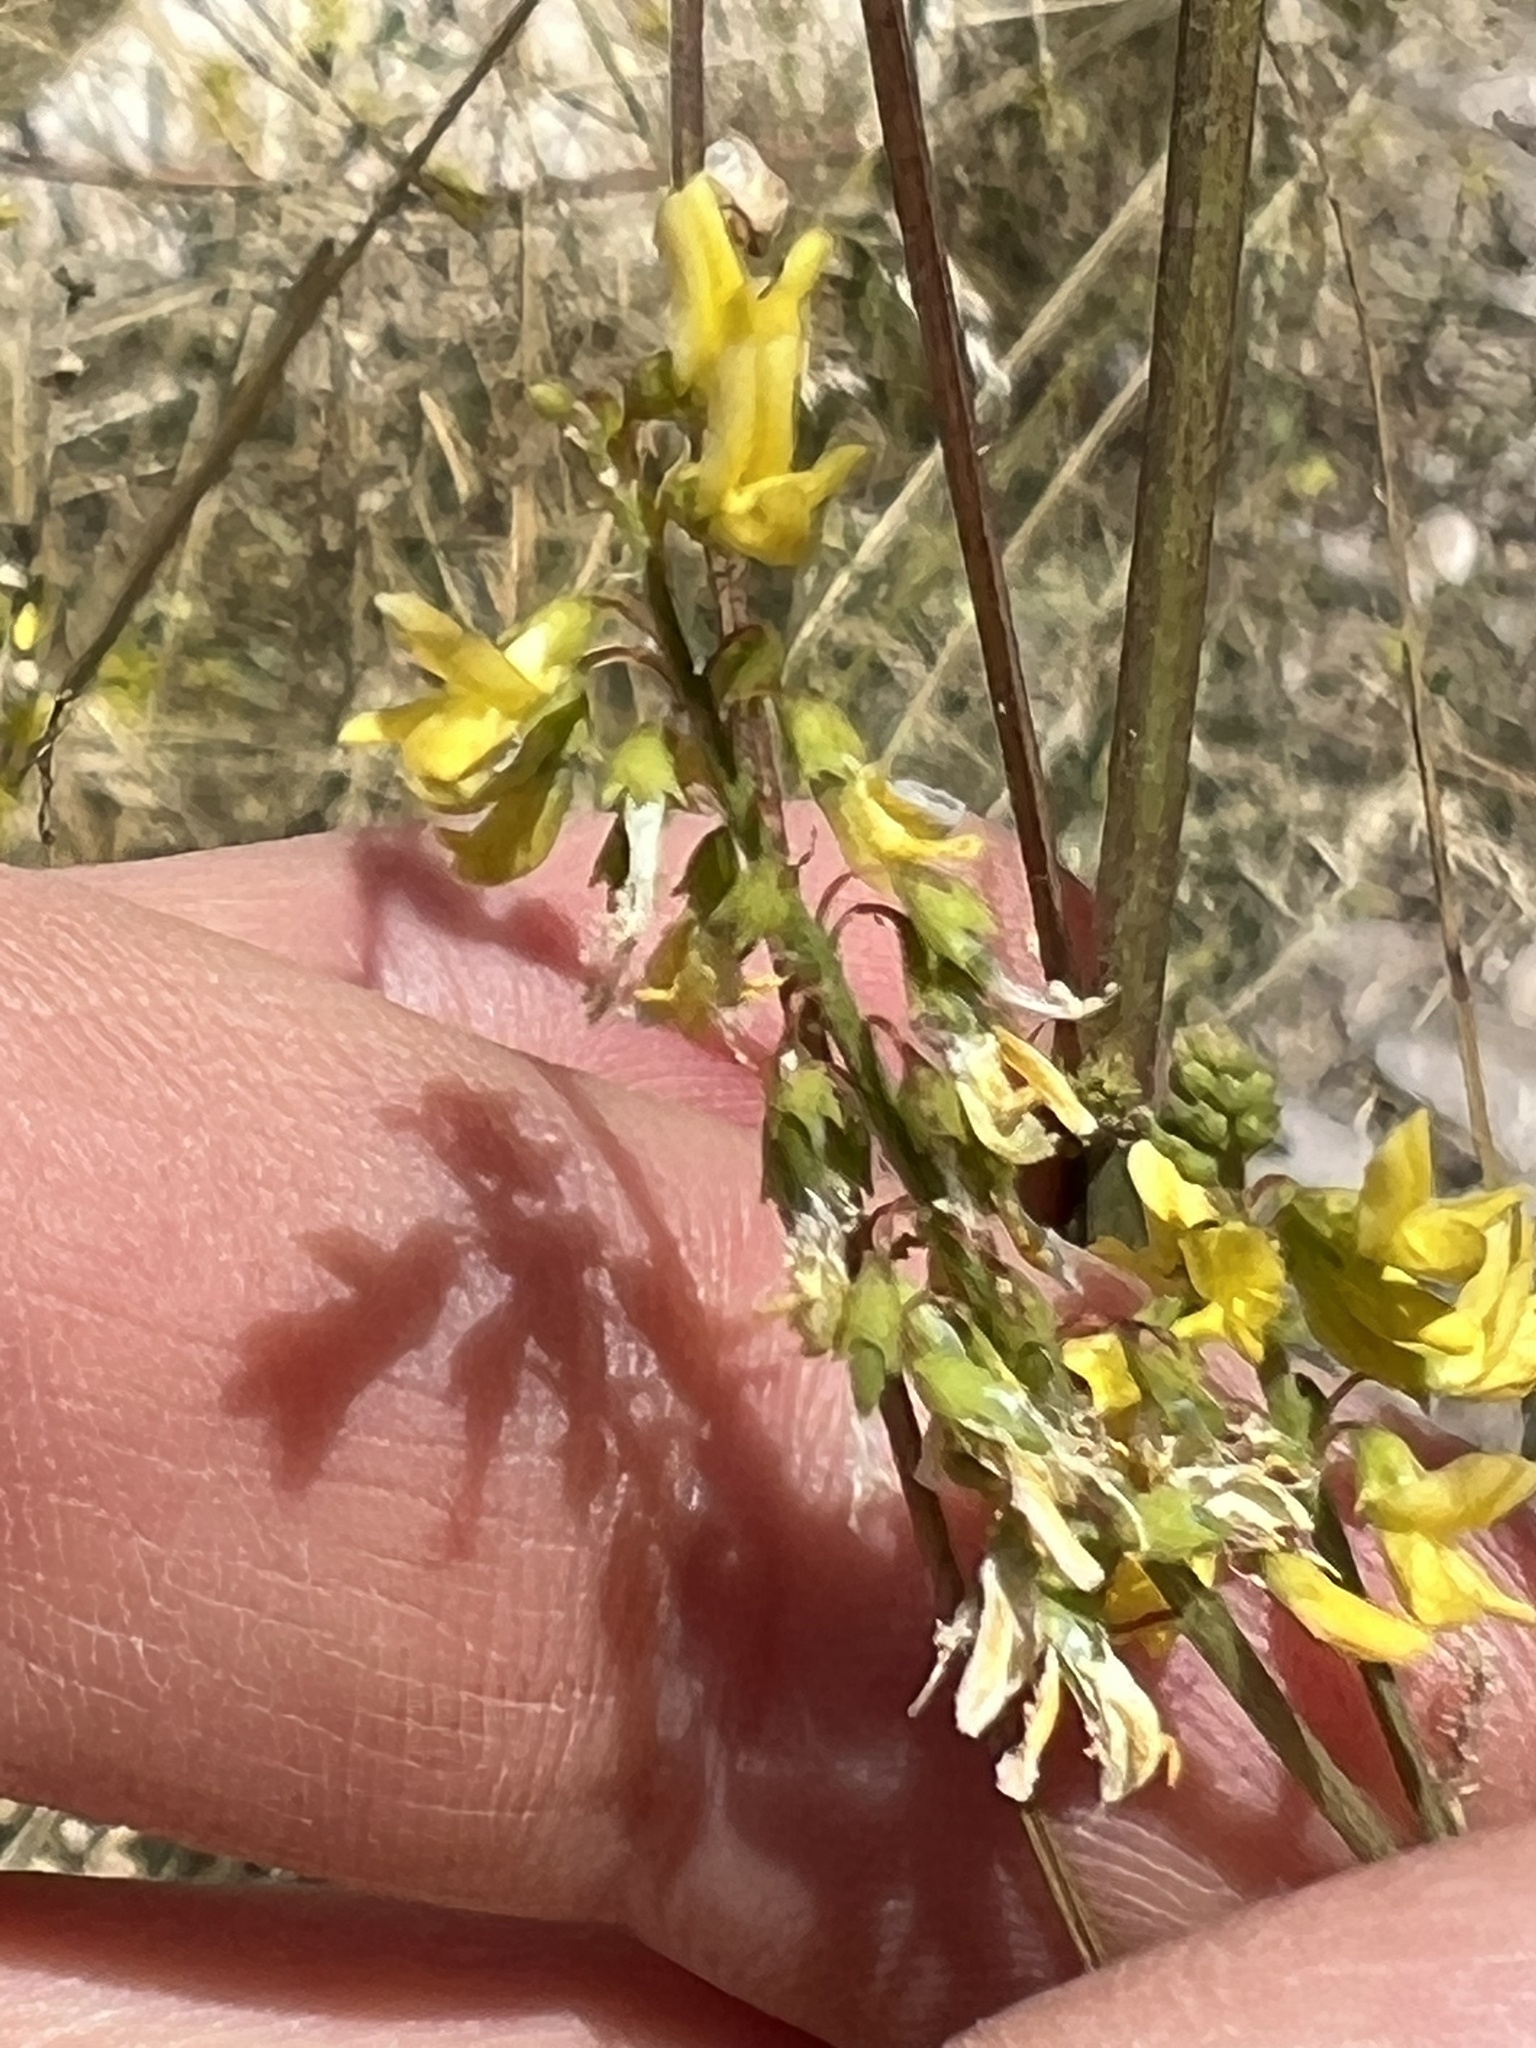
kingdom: Plantae
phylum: Tracheophyta
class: Magnoliopsida
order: Fabales
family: Fabaceae
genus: Melilotus
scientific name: Melilotus officinalis
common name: Sweetclover
